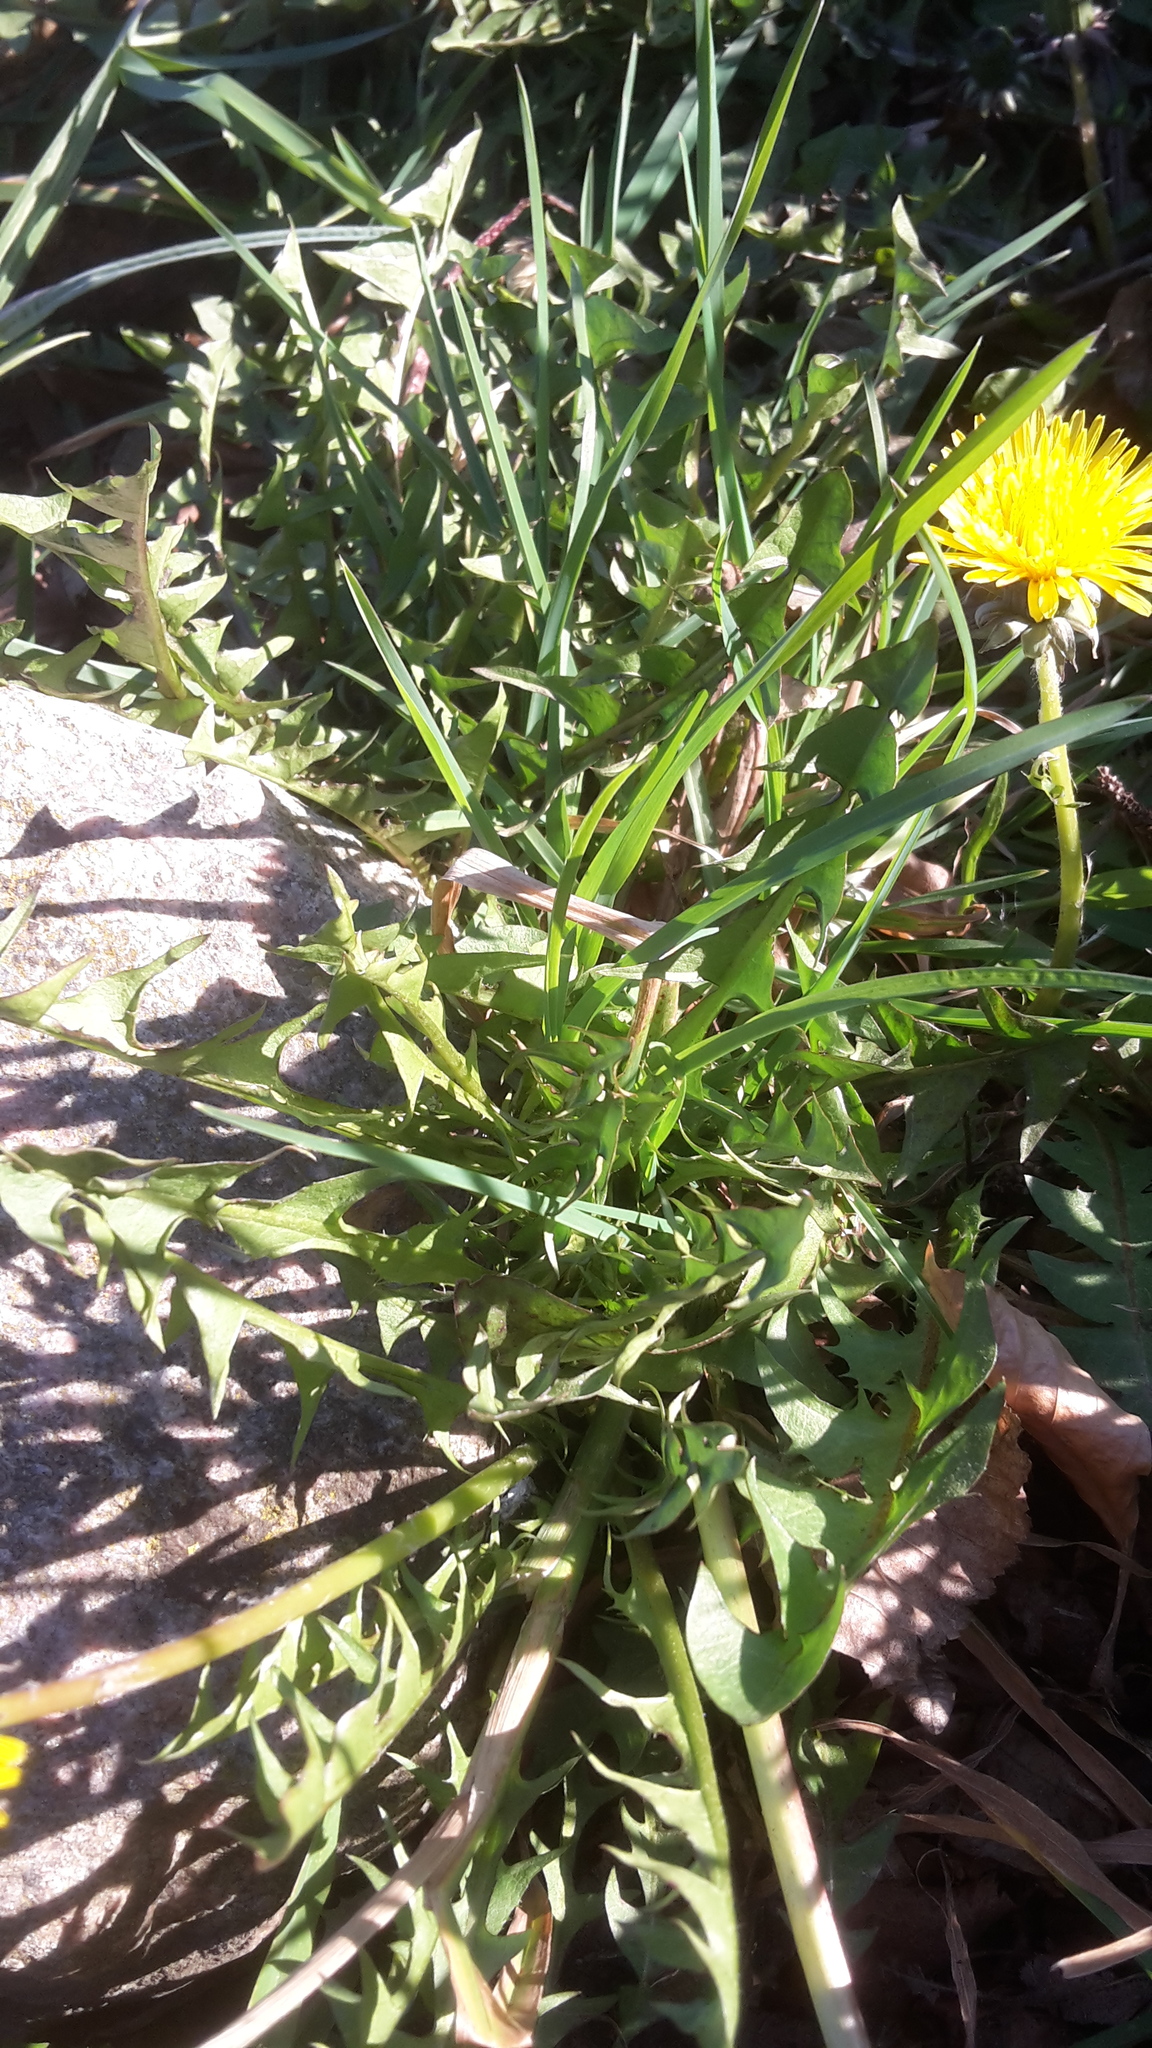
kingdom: Plantae
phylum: Tracheophyta
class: Magnoliopsida
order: Asterales
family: Asteraceae
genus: Taraxacum
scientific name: Taraxacum officinale
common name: Common dandelion
